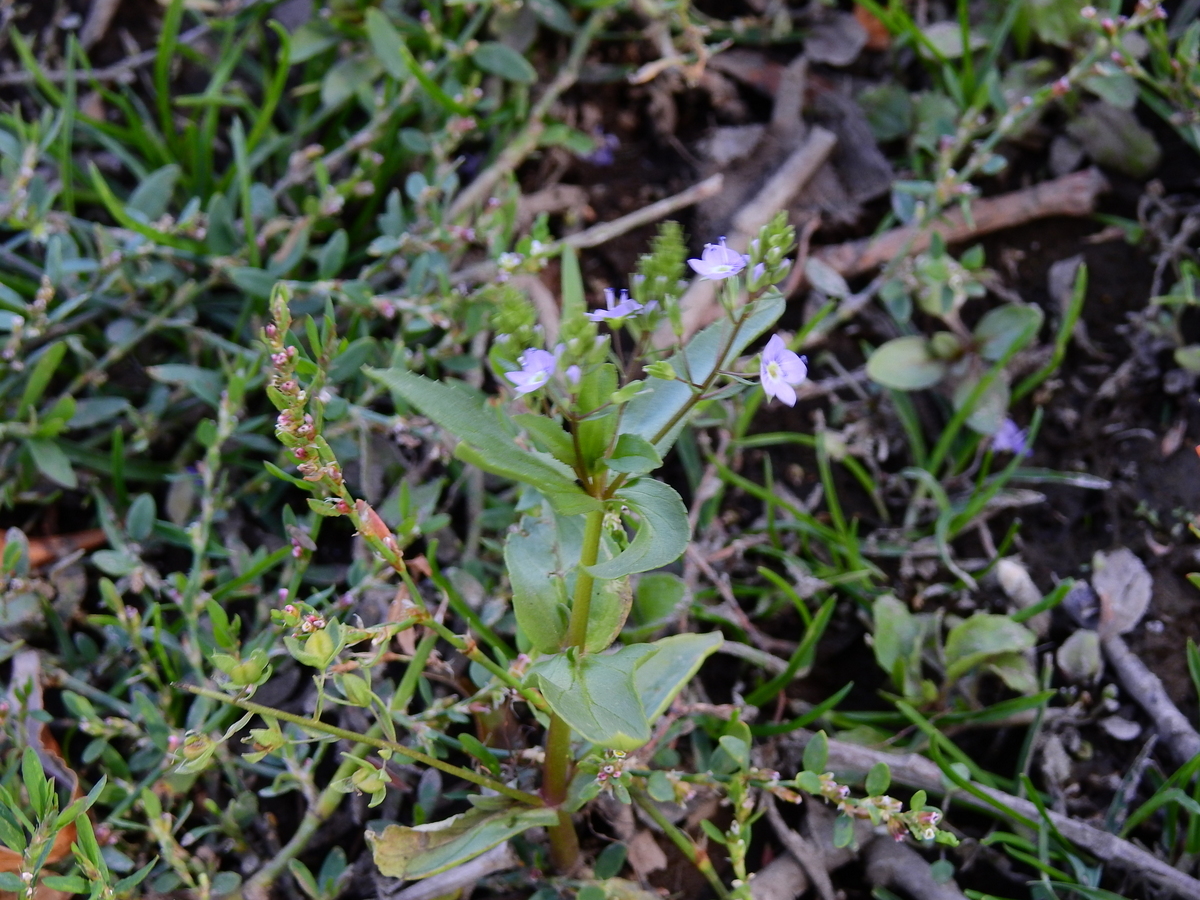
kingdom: Plantae
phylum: Tracheophyta
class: Magnoliopsida
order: Lamiales
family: Plantaginaceae
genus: Veronica
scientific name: Veronica anagallis-aquatica
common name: Water speedwell
